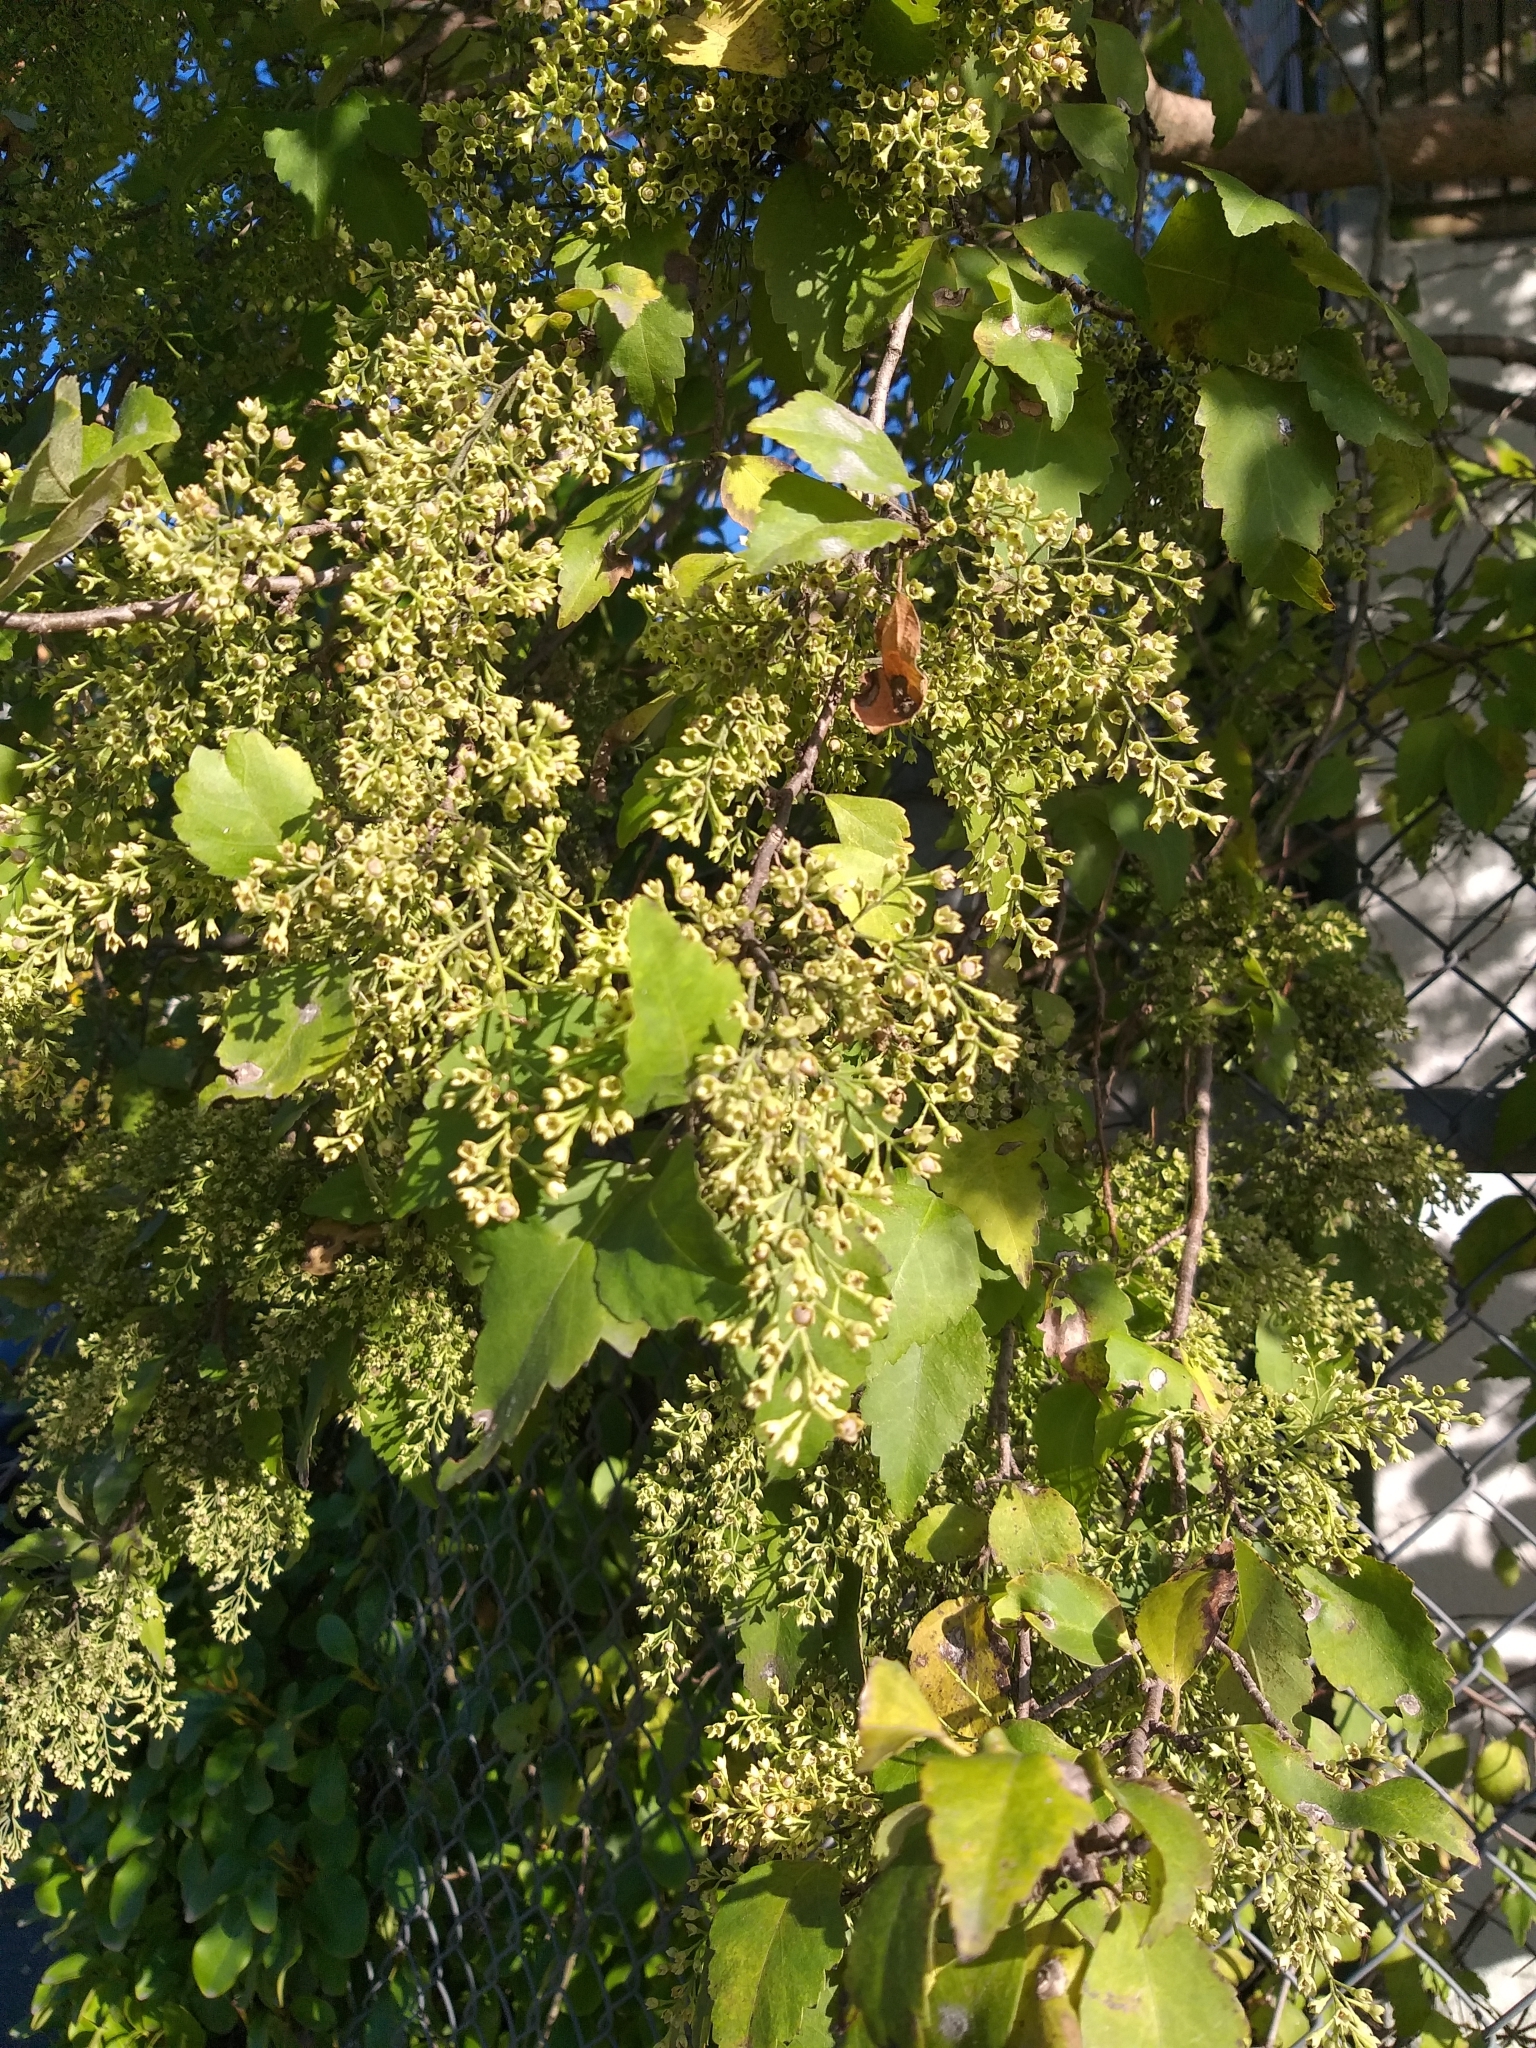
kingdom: Plantae
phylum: Tracheophyta
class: Magnoliopsida
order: Malvales
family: Malvaceae
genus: Plagianthus
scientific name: Plagianthus regius
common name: Manatu
